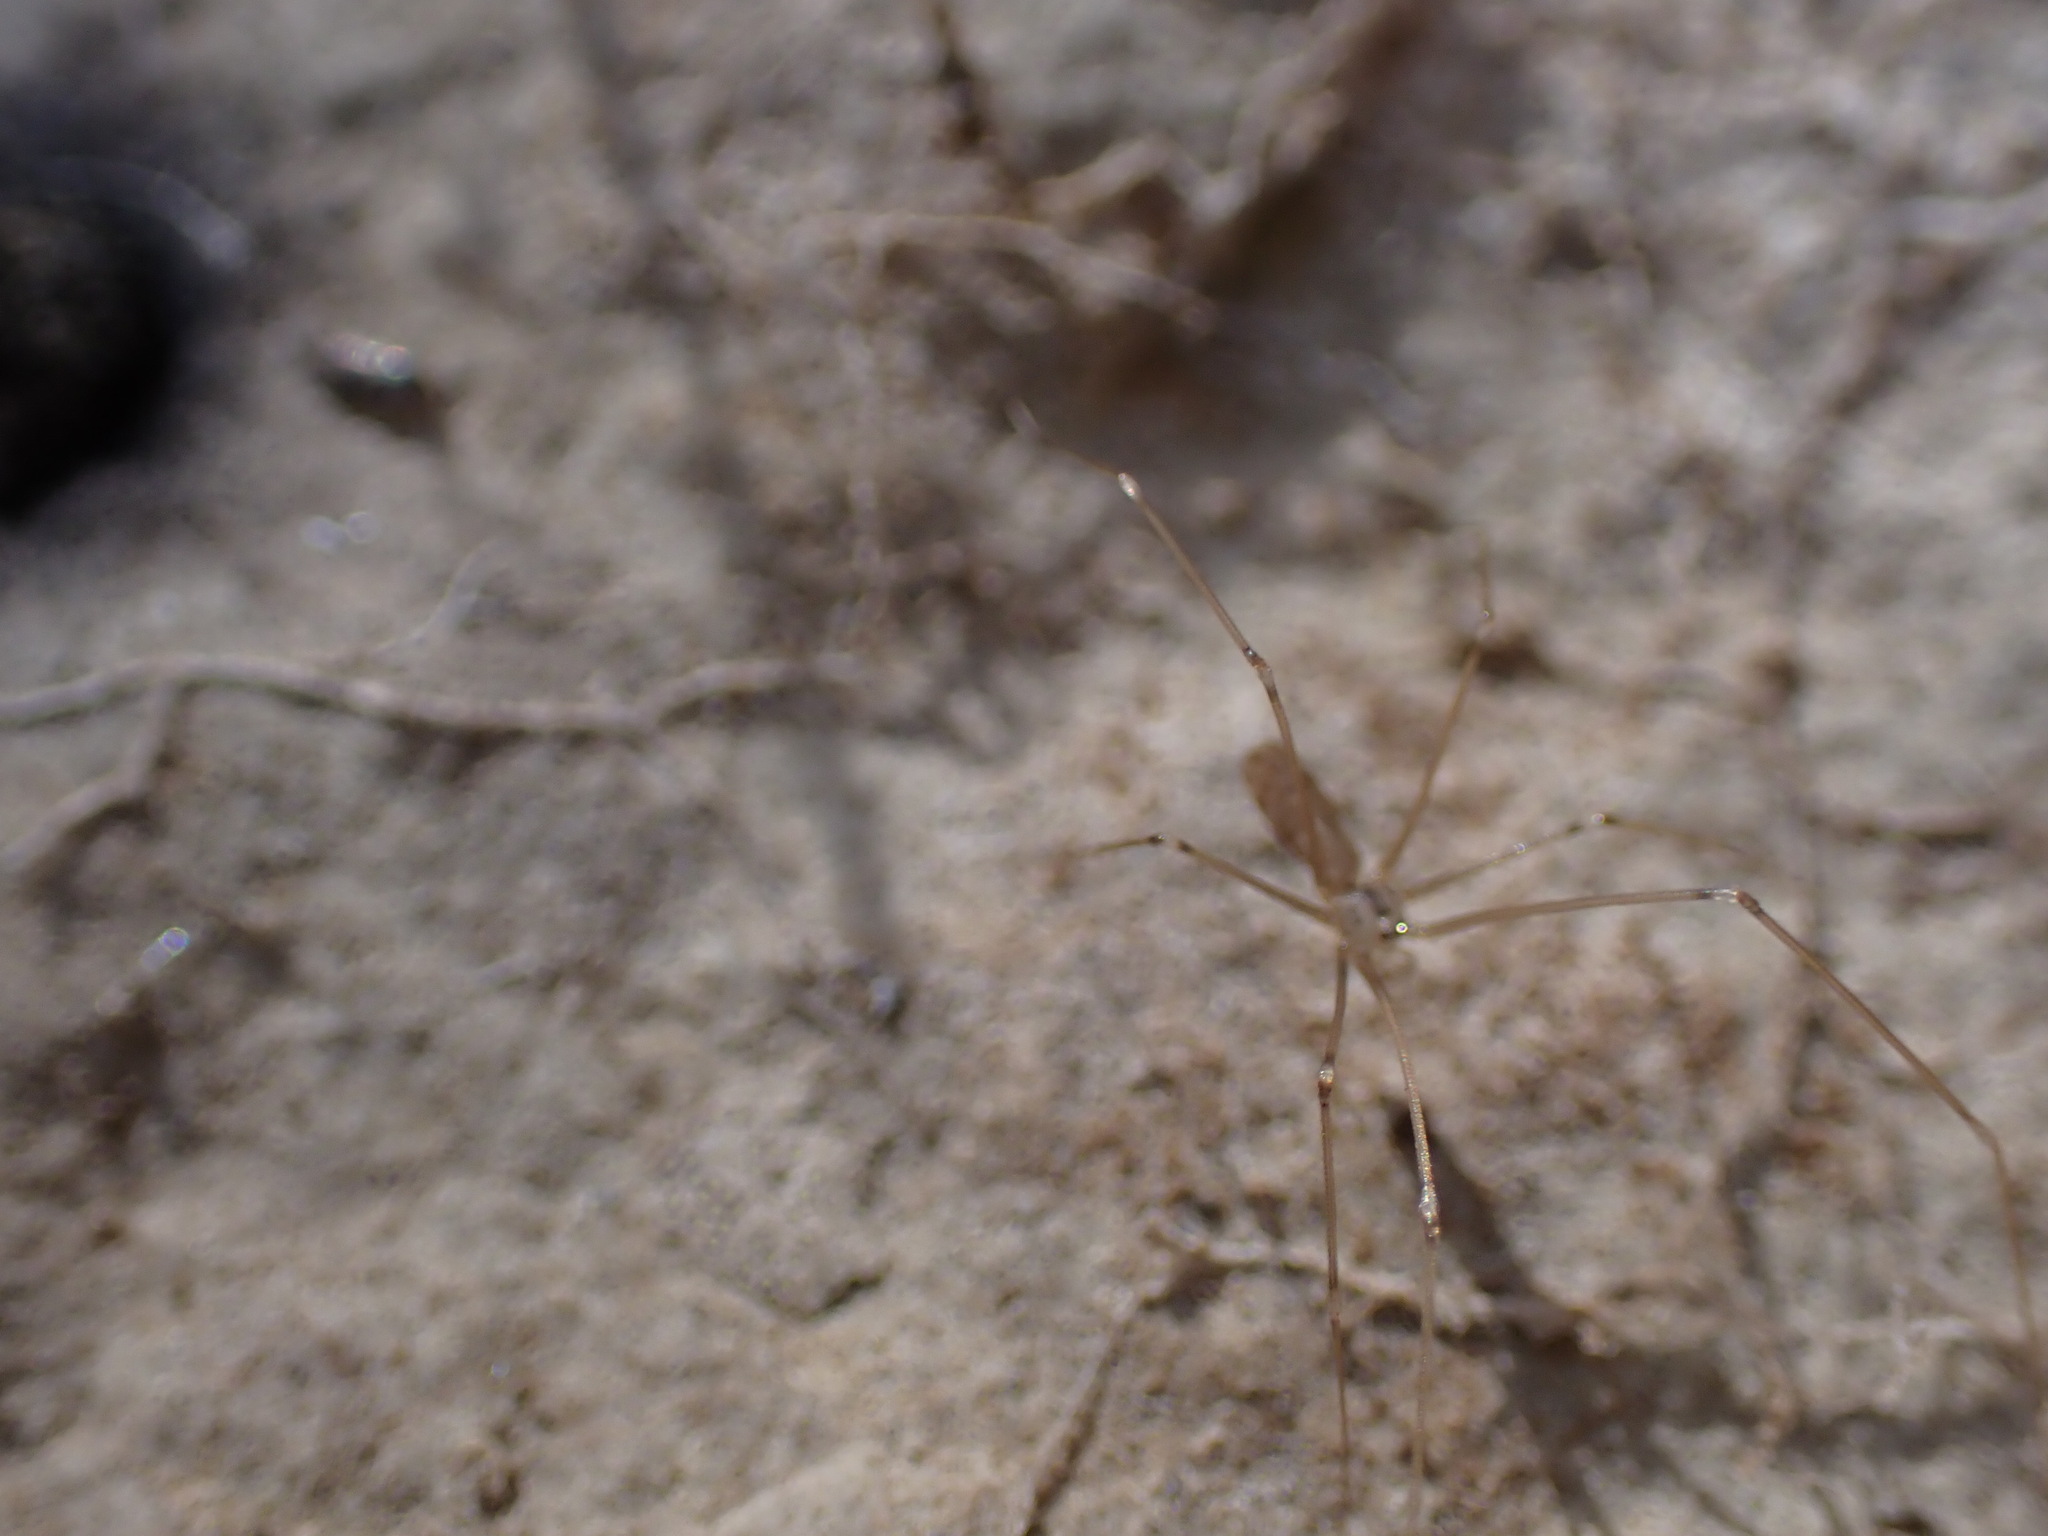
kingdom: Animalia
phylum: Arthropoda
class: Arachnida
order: Araneae
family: Pholcidae
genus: Pholcus
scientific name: Pholcus opilionoides
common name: Daddylongleg spider
